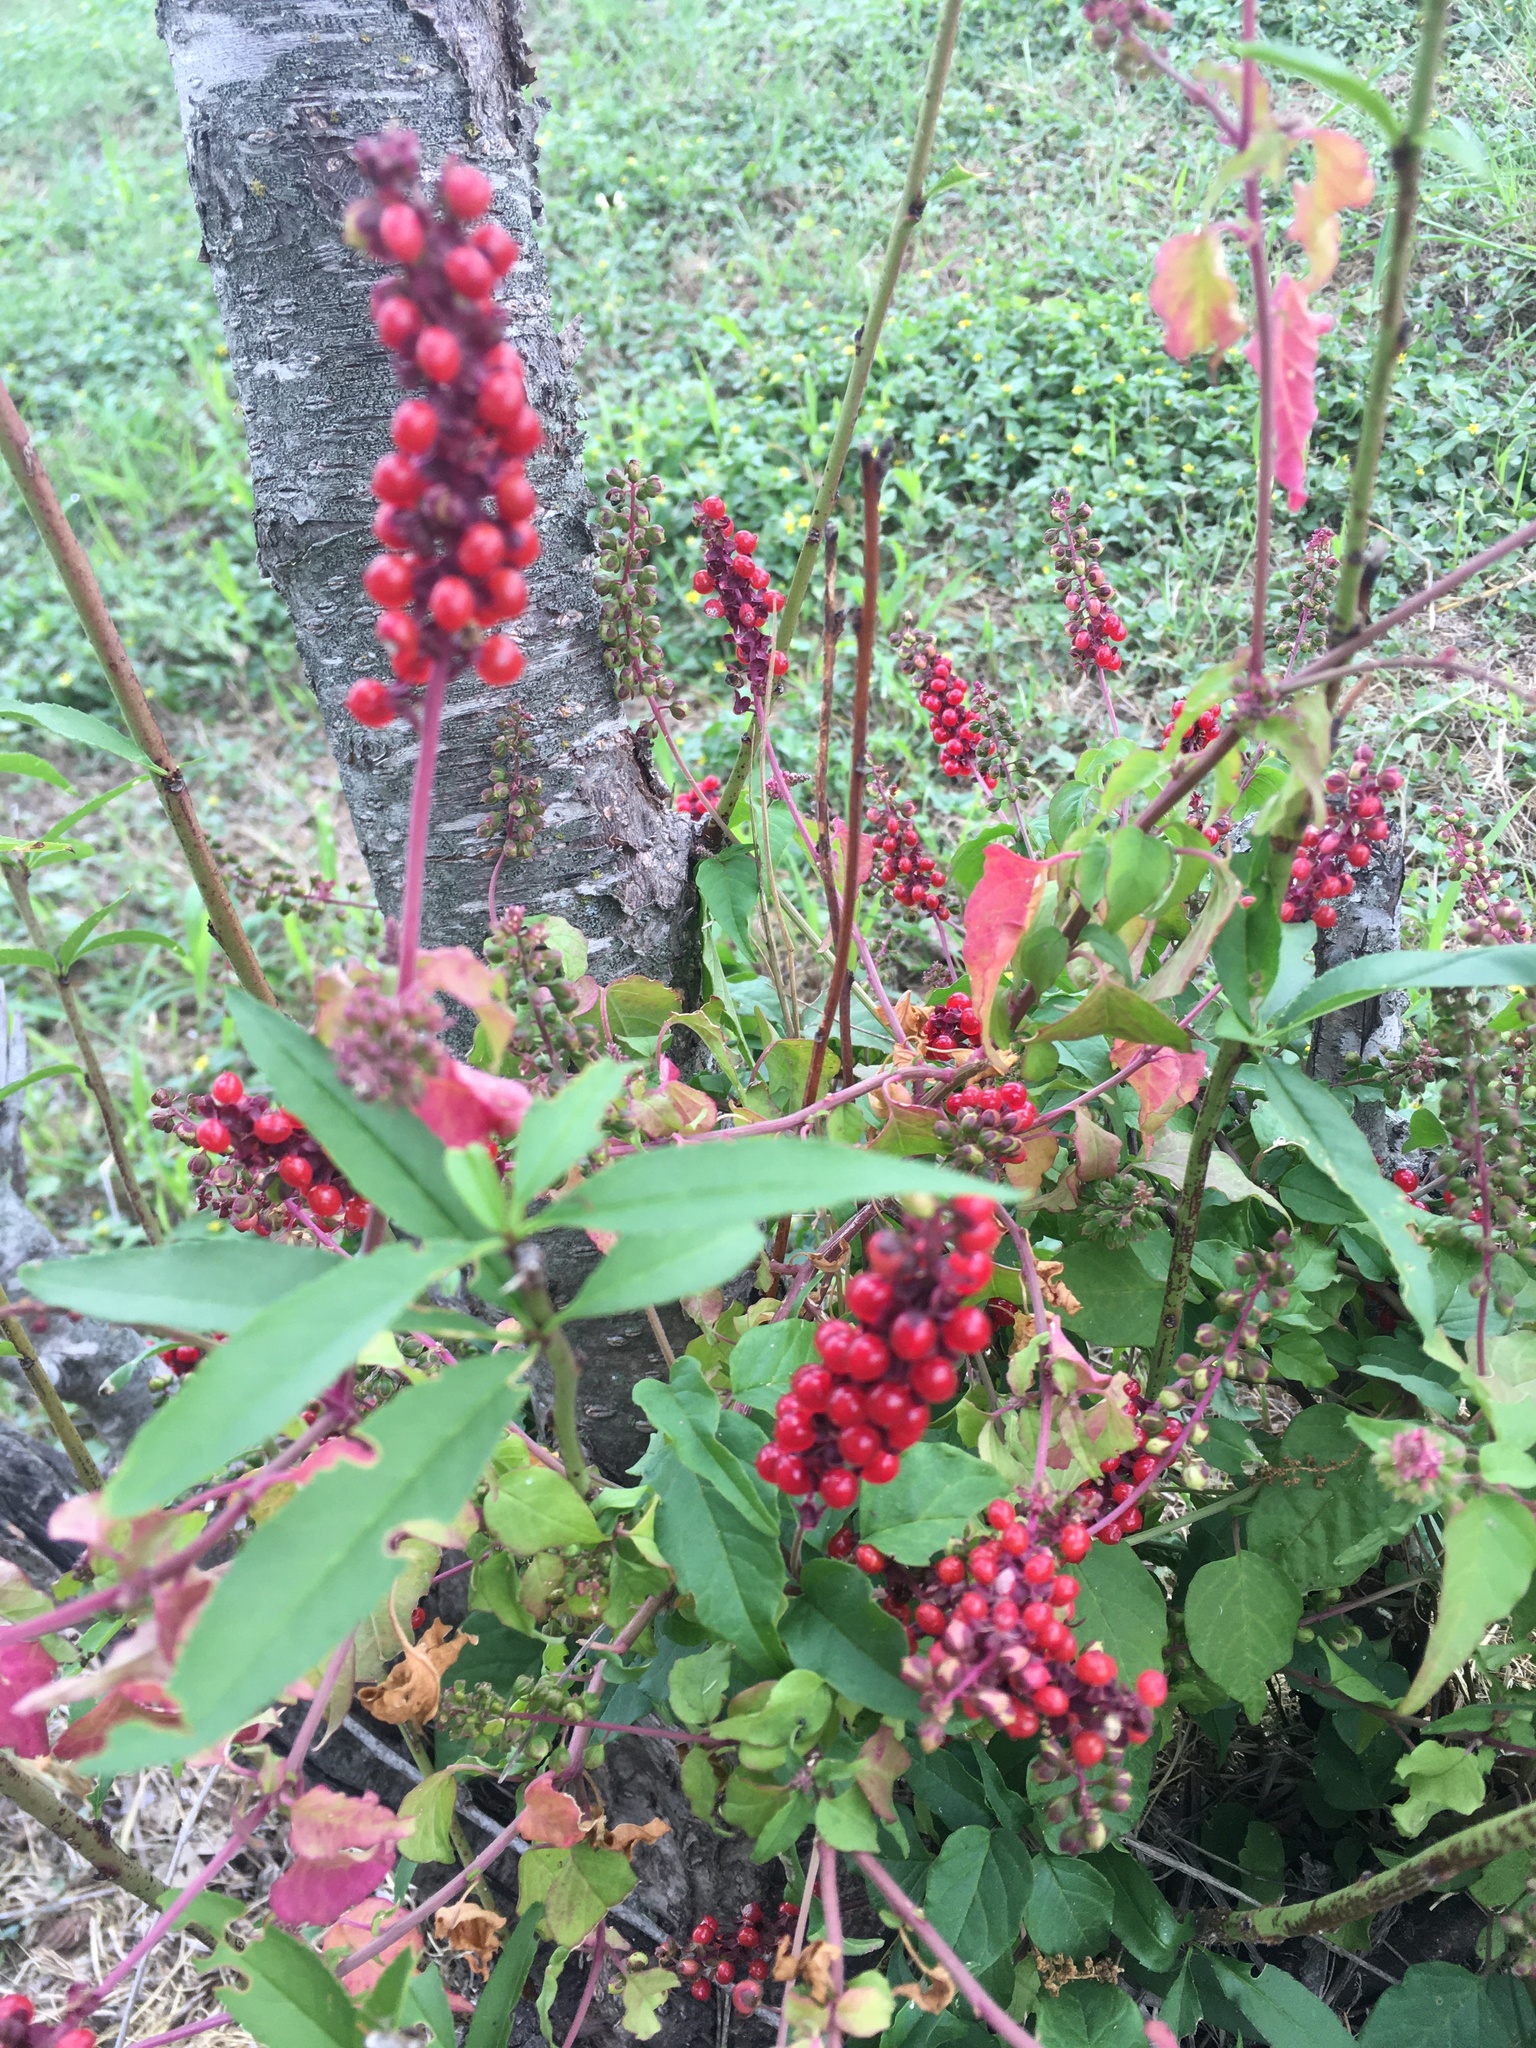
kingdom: Plantae
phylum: Tracheophyta
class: Magnoliopsida
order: Caryophyllales
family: Phytolaccaceae
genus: Rivina
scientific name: Rivina humilis
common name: Rougeplant
